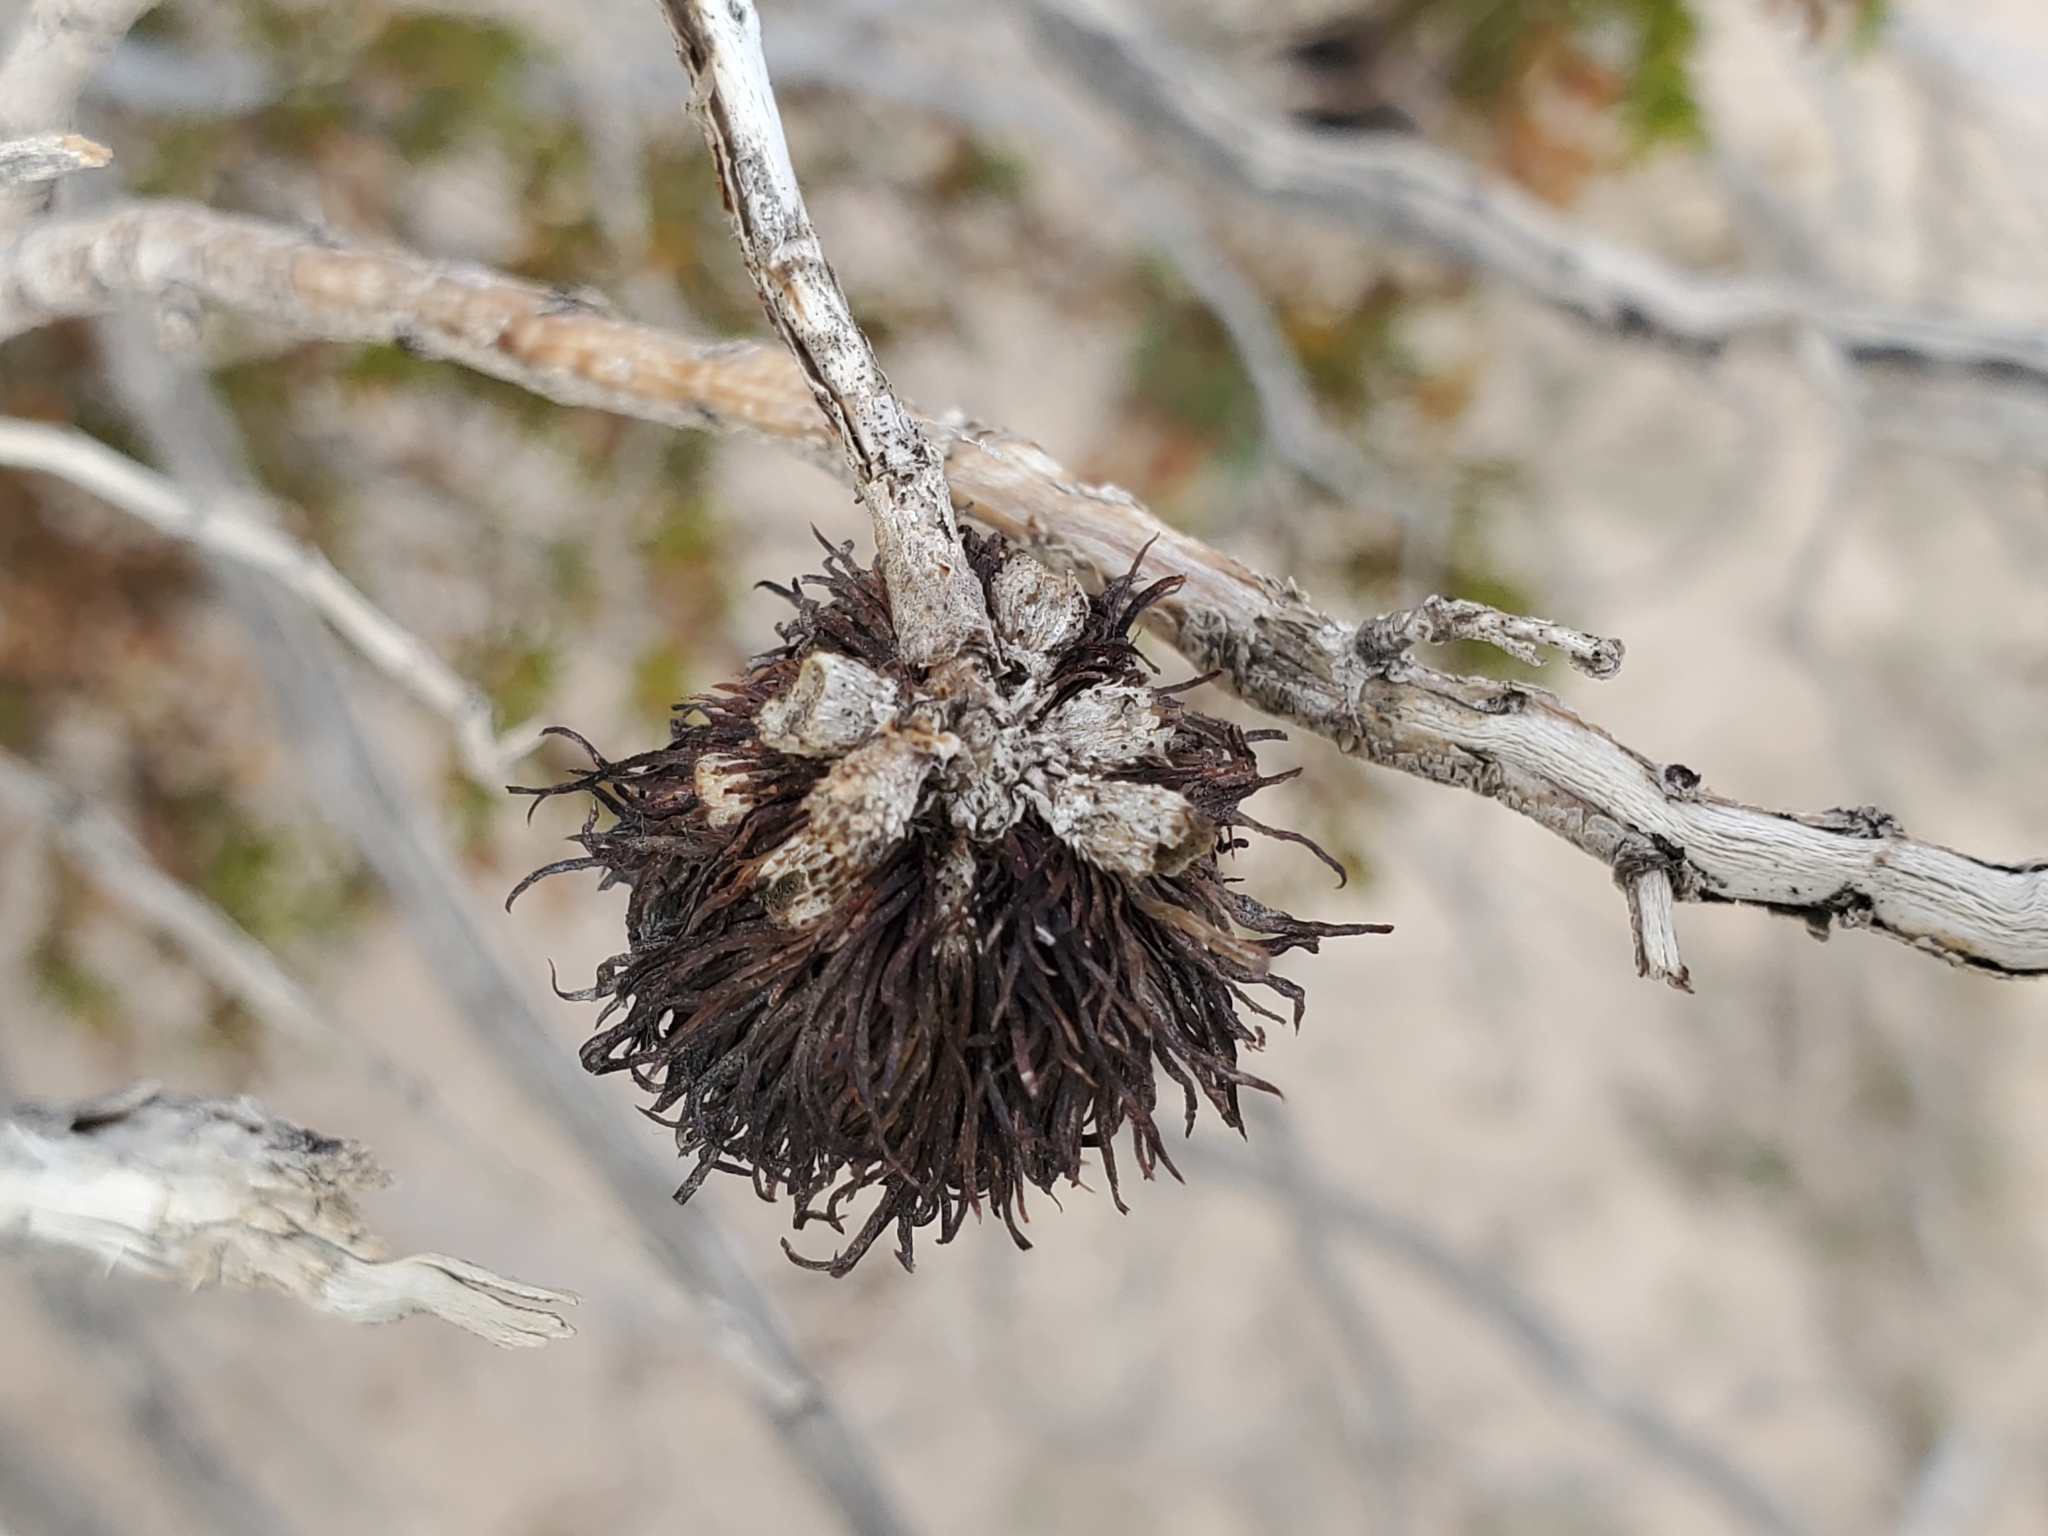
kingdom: Animalia
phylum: Arthropoda
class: Insecta
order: Diptera
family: Cecidomyiidae
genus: Asphondylia
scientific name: Asphondylia auripila
